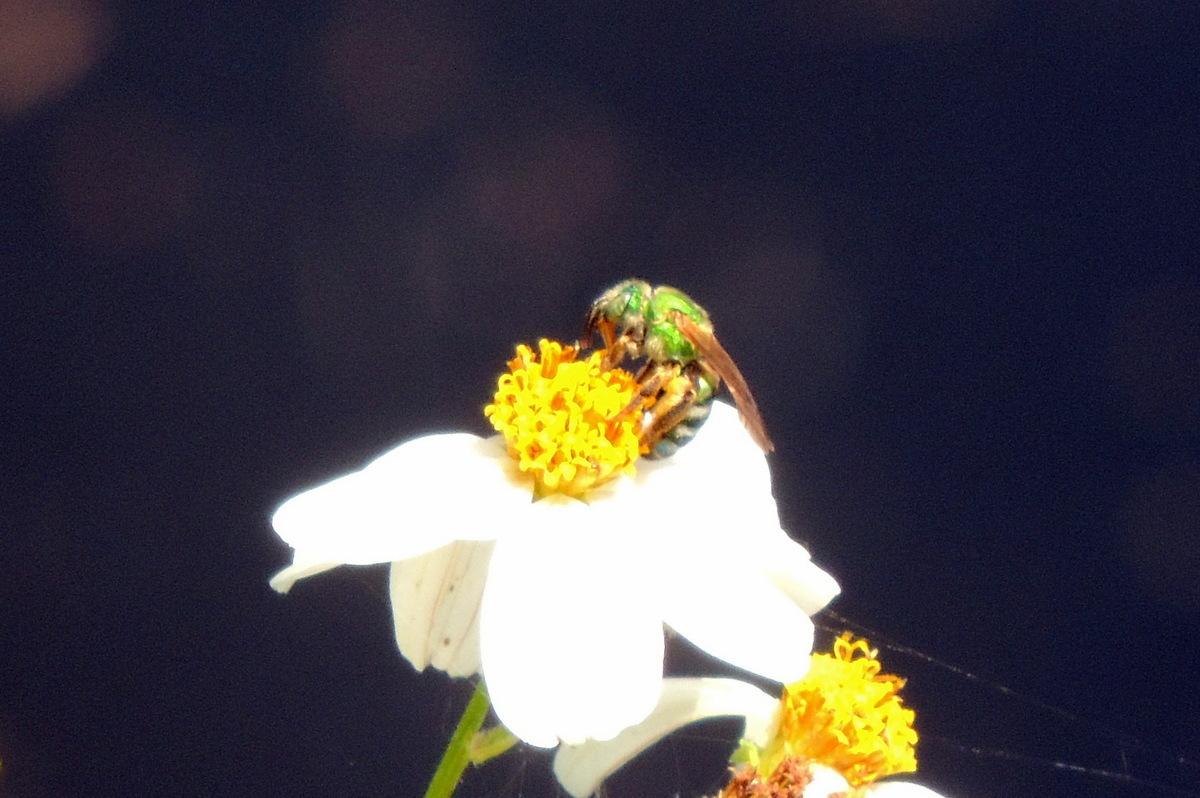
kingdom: Animalia
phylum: Arthropoda
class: Insecta
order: Hymenoptera
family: Halictidae
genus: Agapostemon
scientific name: Agapostemon splendens
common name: Brown-winged striped sweat bee
